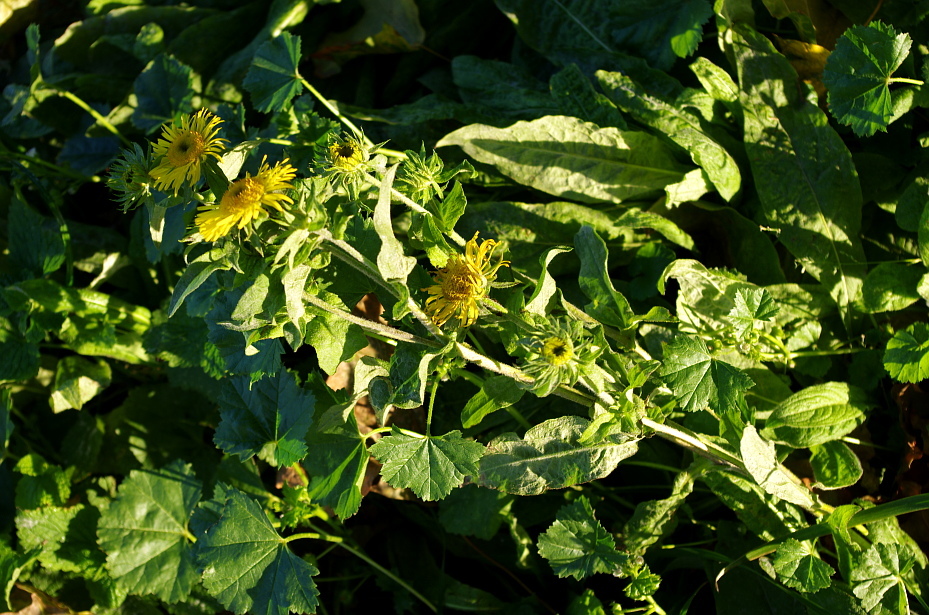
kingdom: Plantae
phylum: Tracheophyta
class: Magnoliopsida
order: Asterales
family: Asteraceae
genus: Pentanema
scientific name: Pentanema britannicum
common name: British elecampane
